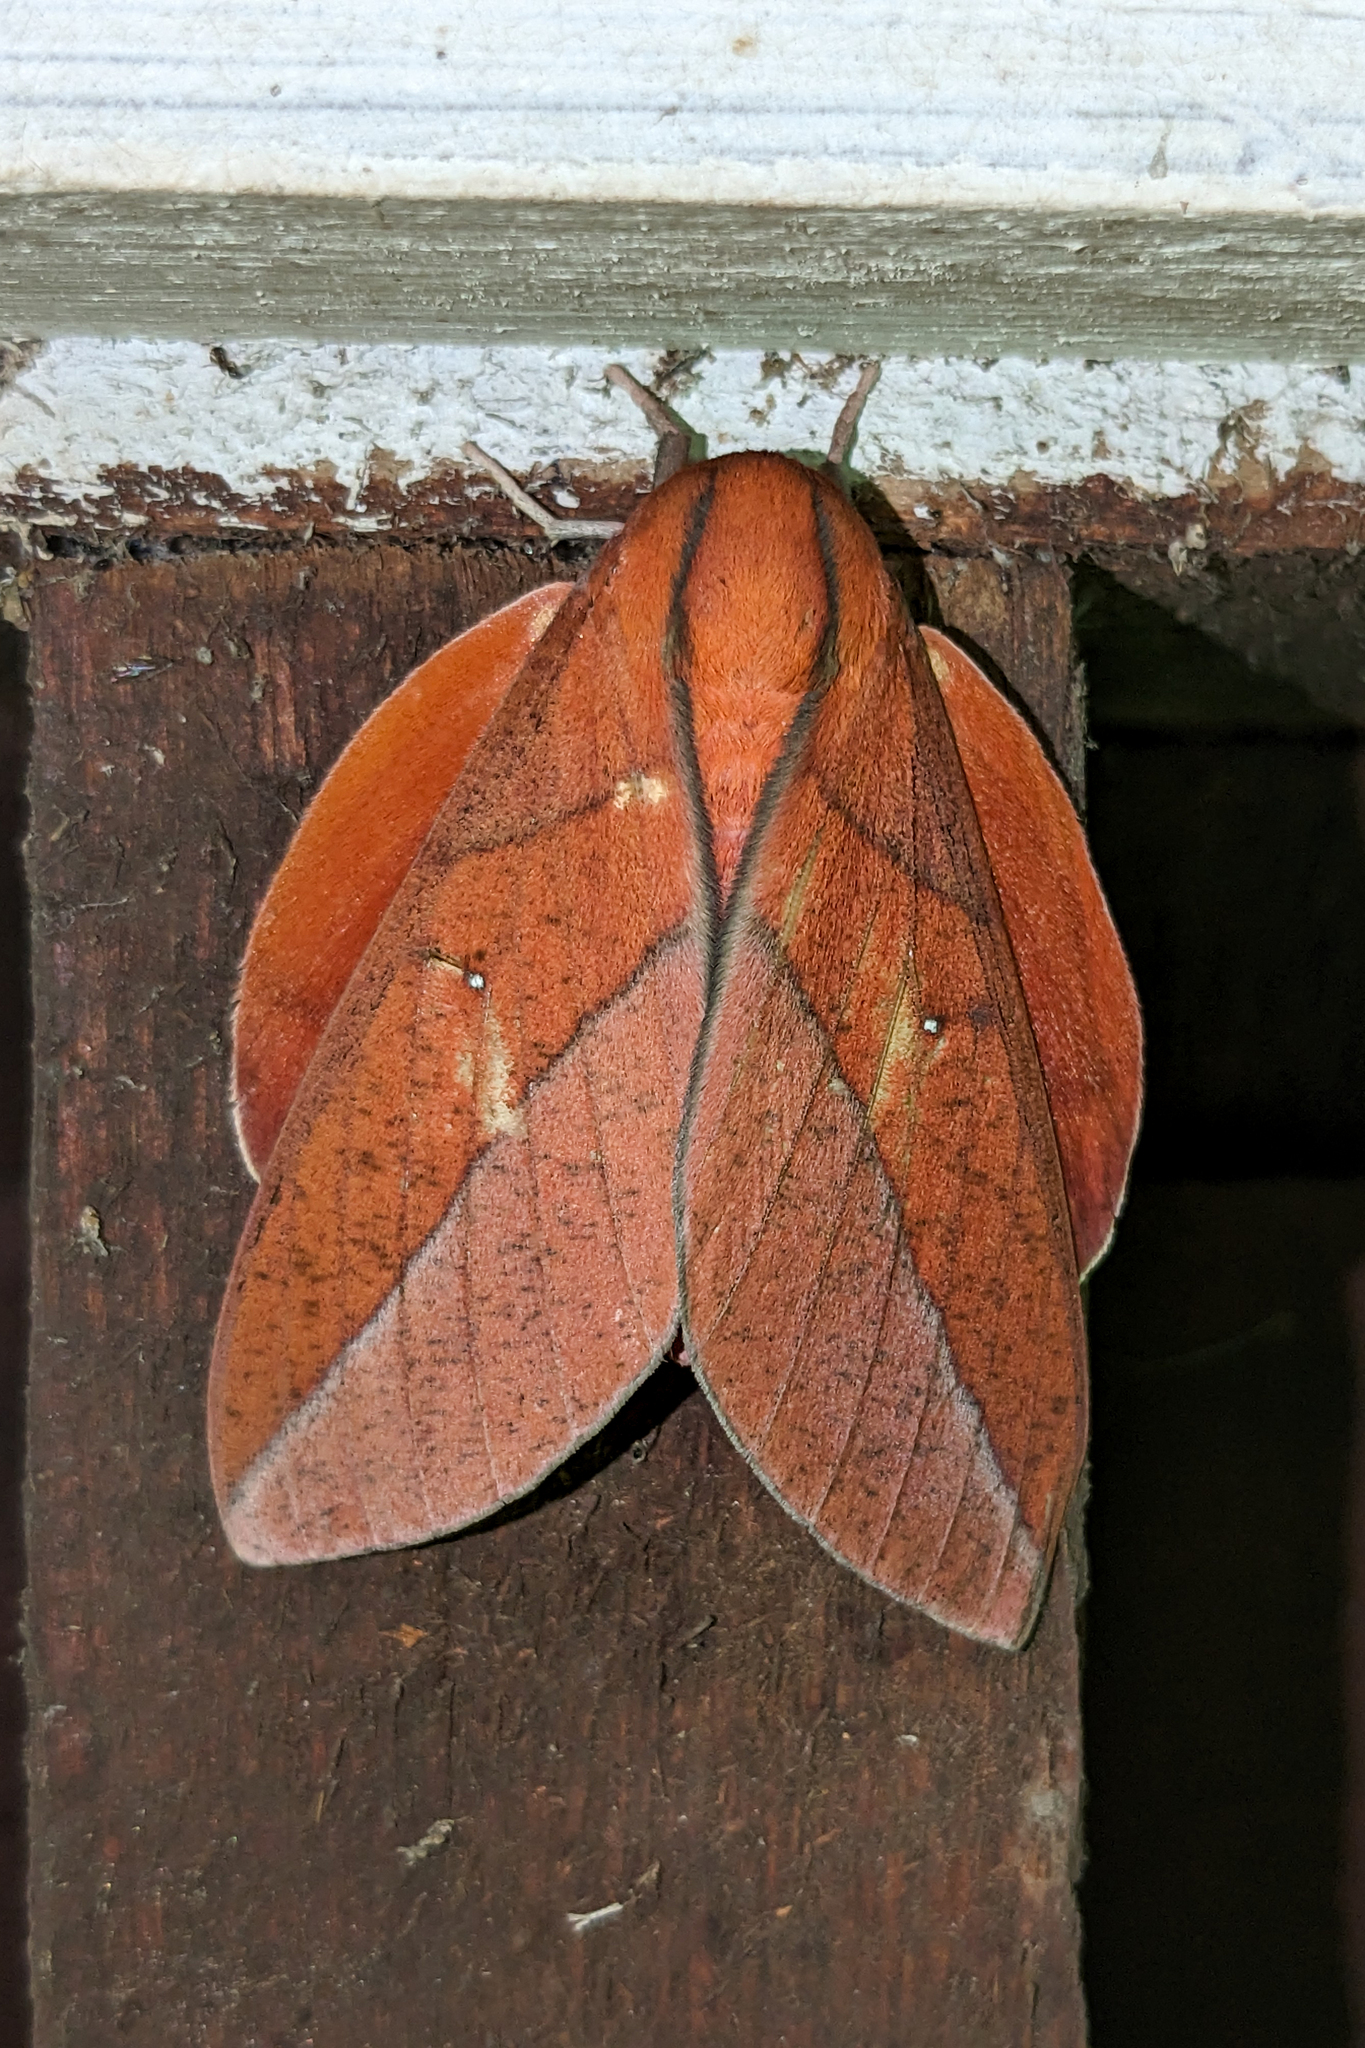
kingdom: Animalia
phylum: Arthropoda
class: Insecta
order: Lepidoptera
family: Saturniidae
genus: Adeloneivaia
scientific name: Adeloneivaia boisduvalii
